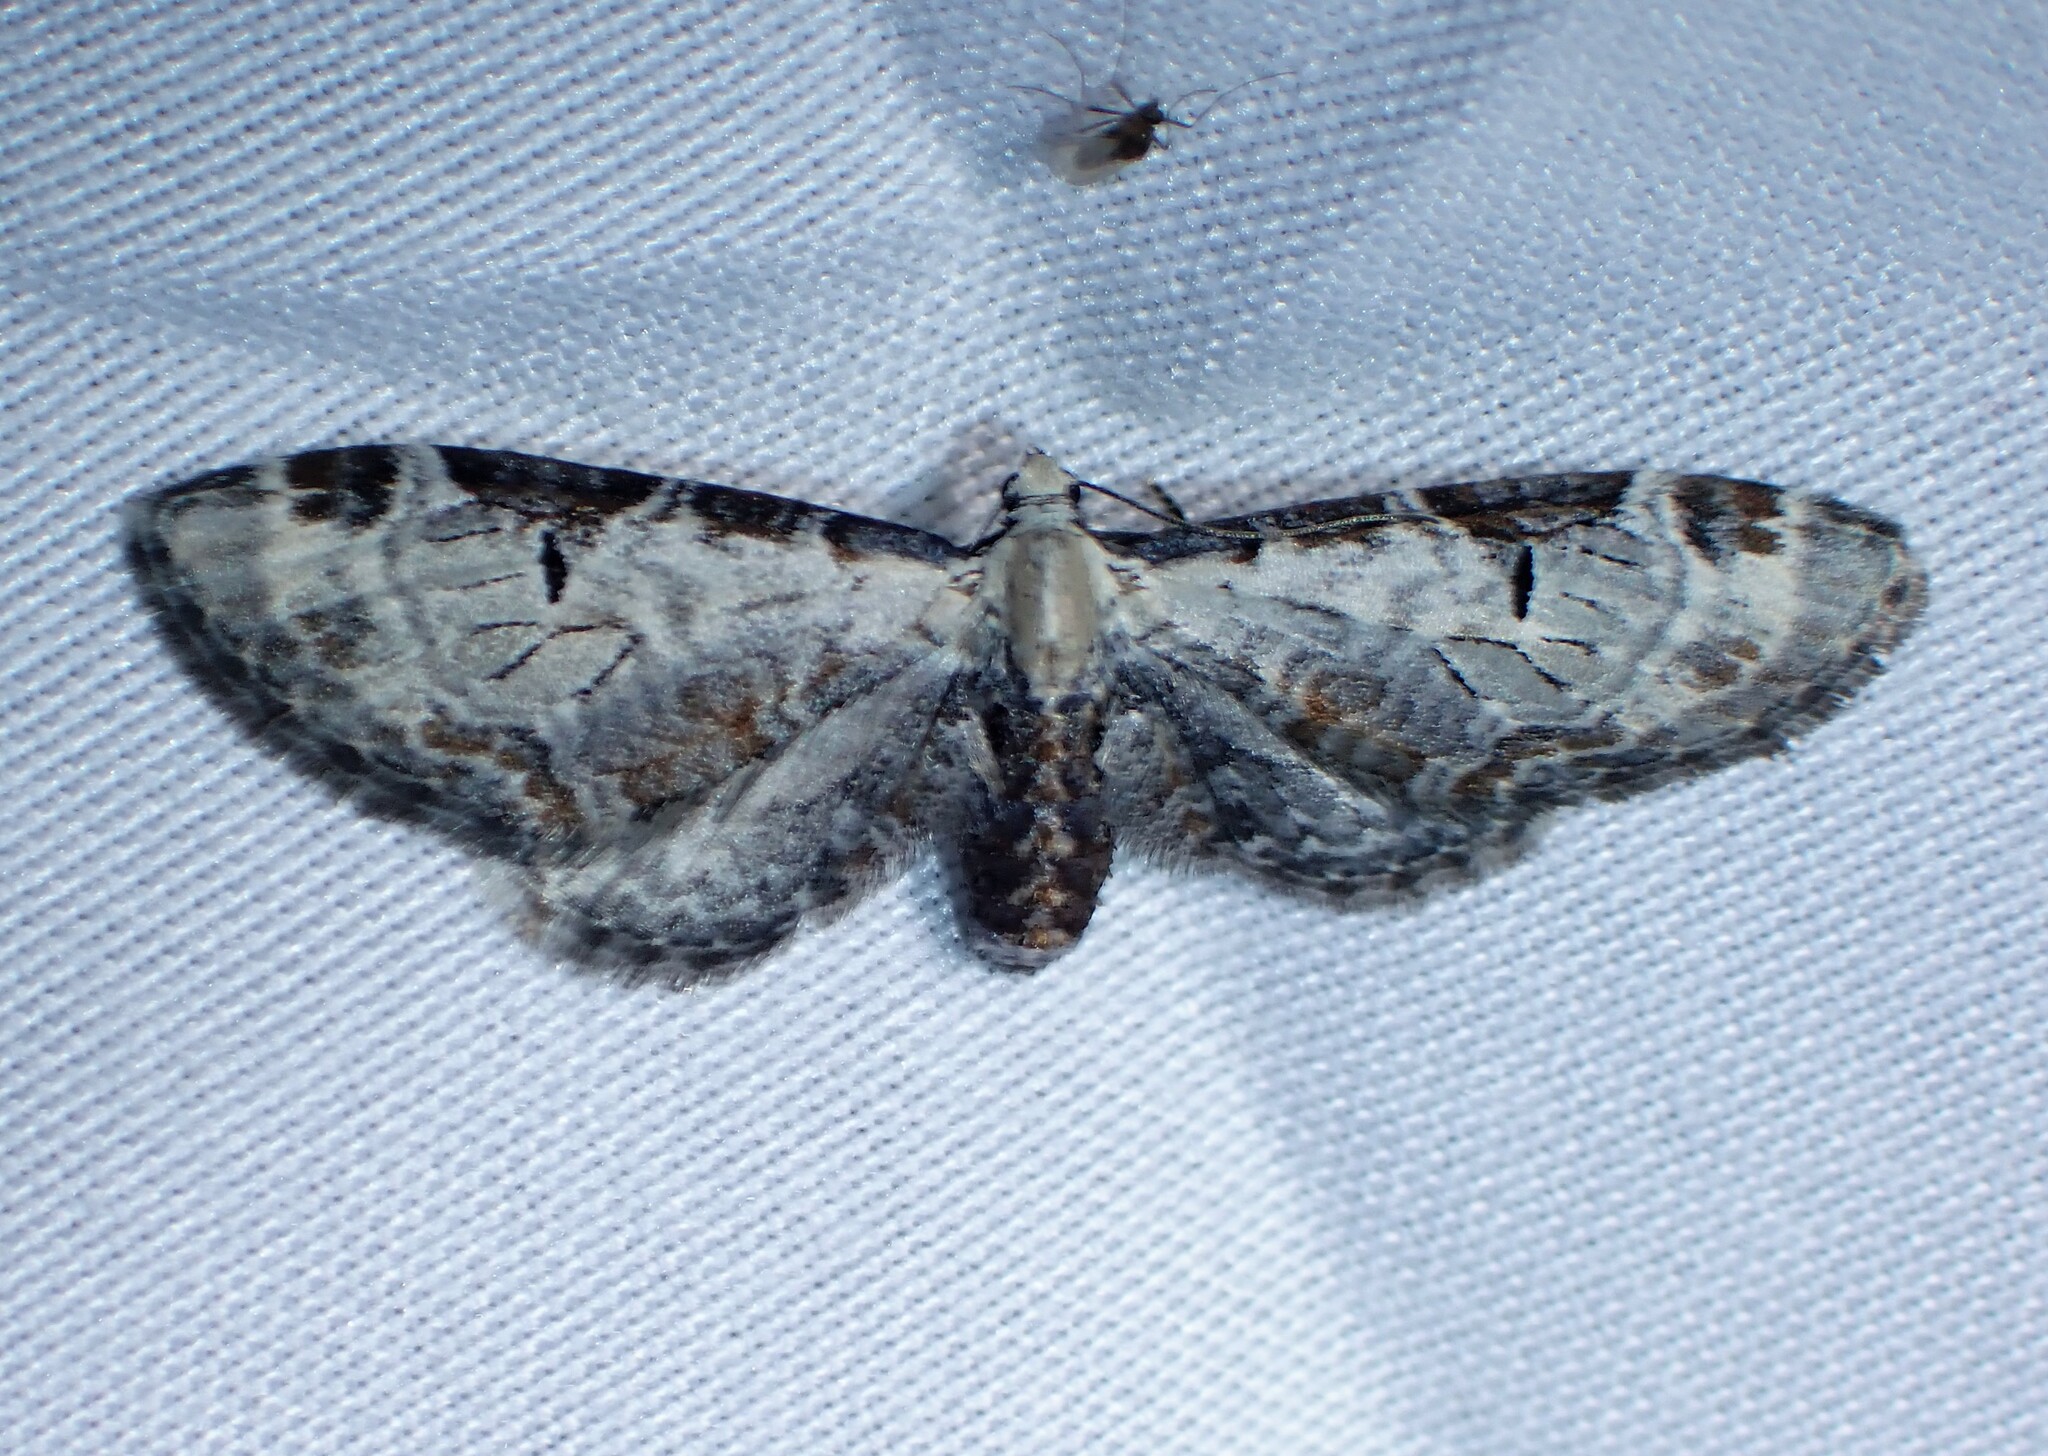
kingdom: Animalia
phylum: Arthropoda
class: Insecta
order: Lepidoptera
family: Geometridae
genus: Eupithecia
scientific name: Eupithecia ravocostaliata
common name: Great varigated pug
